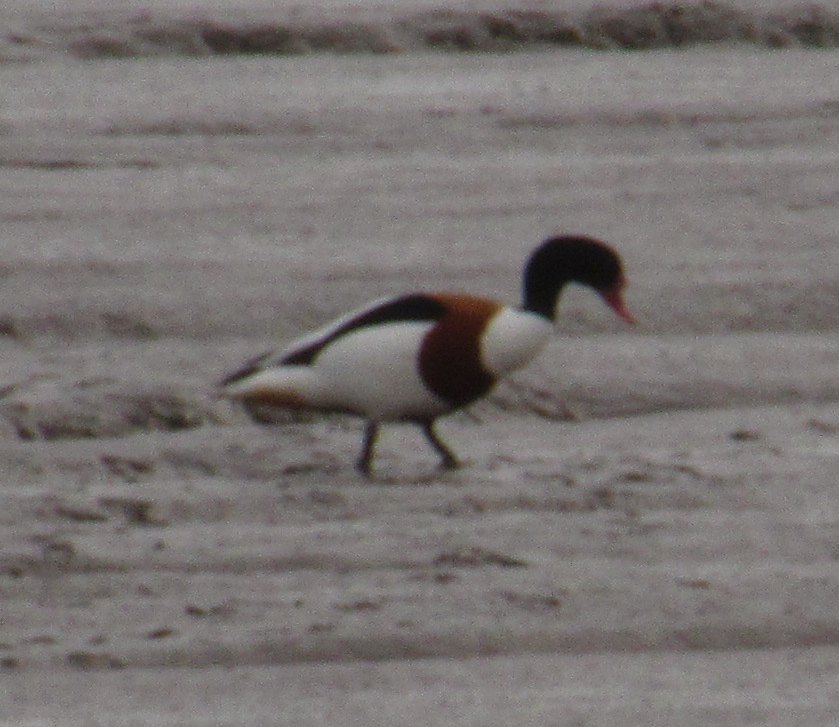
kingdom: Animalia
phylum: Chordata
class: Aves
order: Anseriformes
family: Anatidae
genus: Tadorna
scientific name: Tadorna tadorna
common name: Common shelduck
